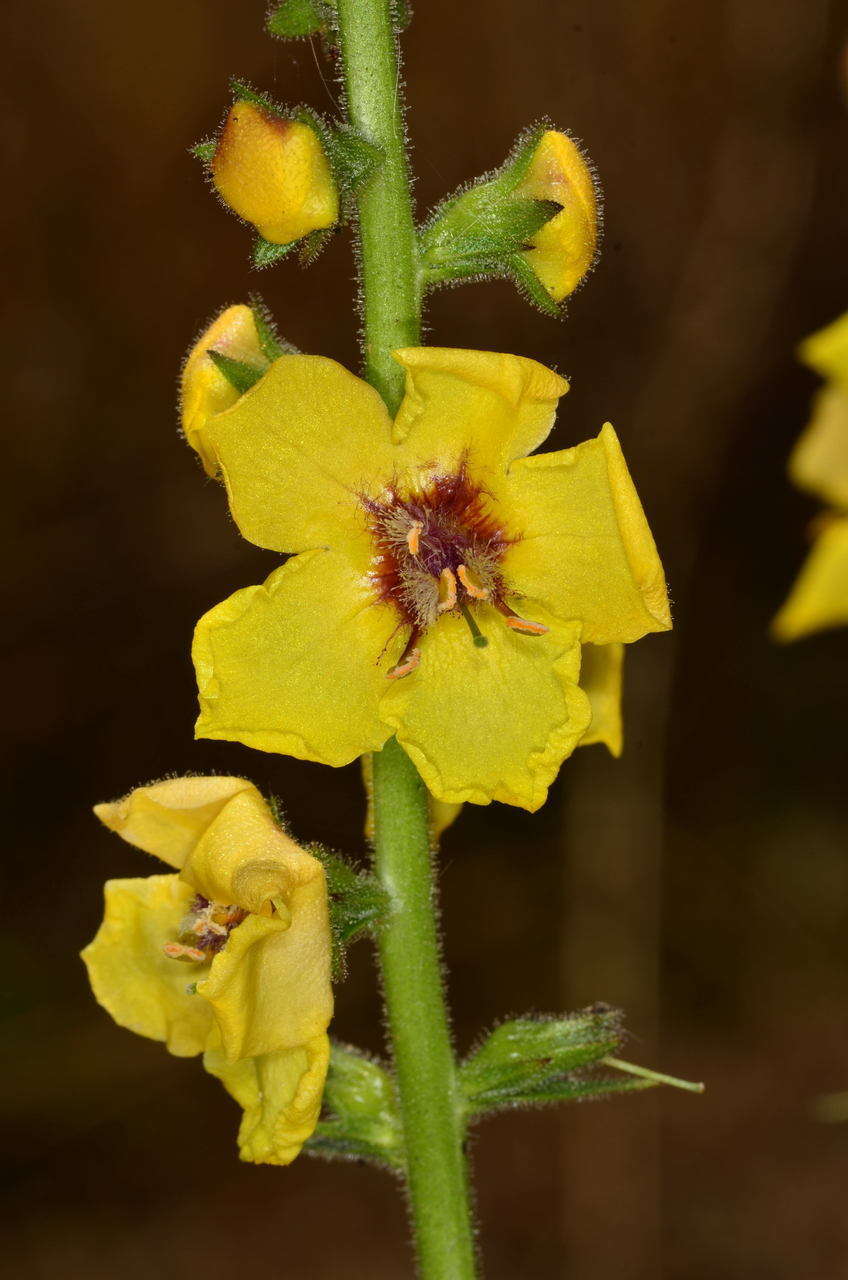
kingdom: Plantae
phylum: Tracheophyta
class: Magnoliopsida
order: Lamiales
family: Scrophulariaceae
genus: Verbascum
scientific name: Verbascum virgatum
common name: Twiggy mullein
